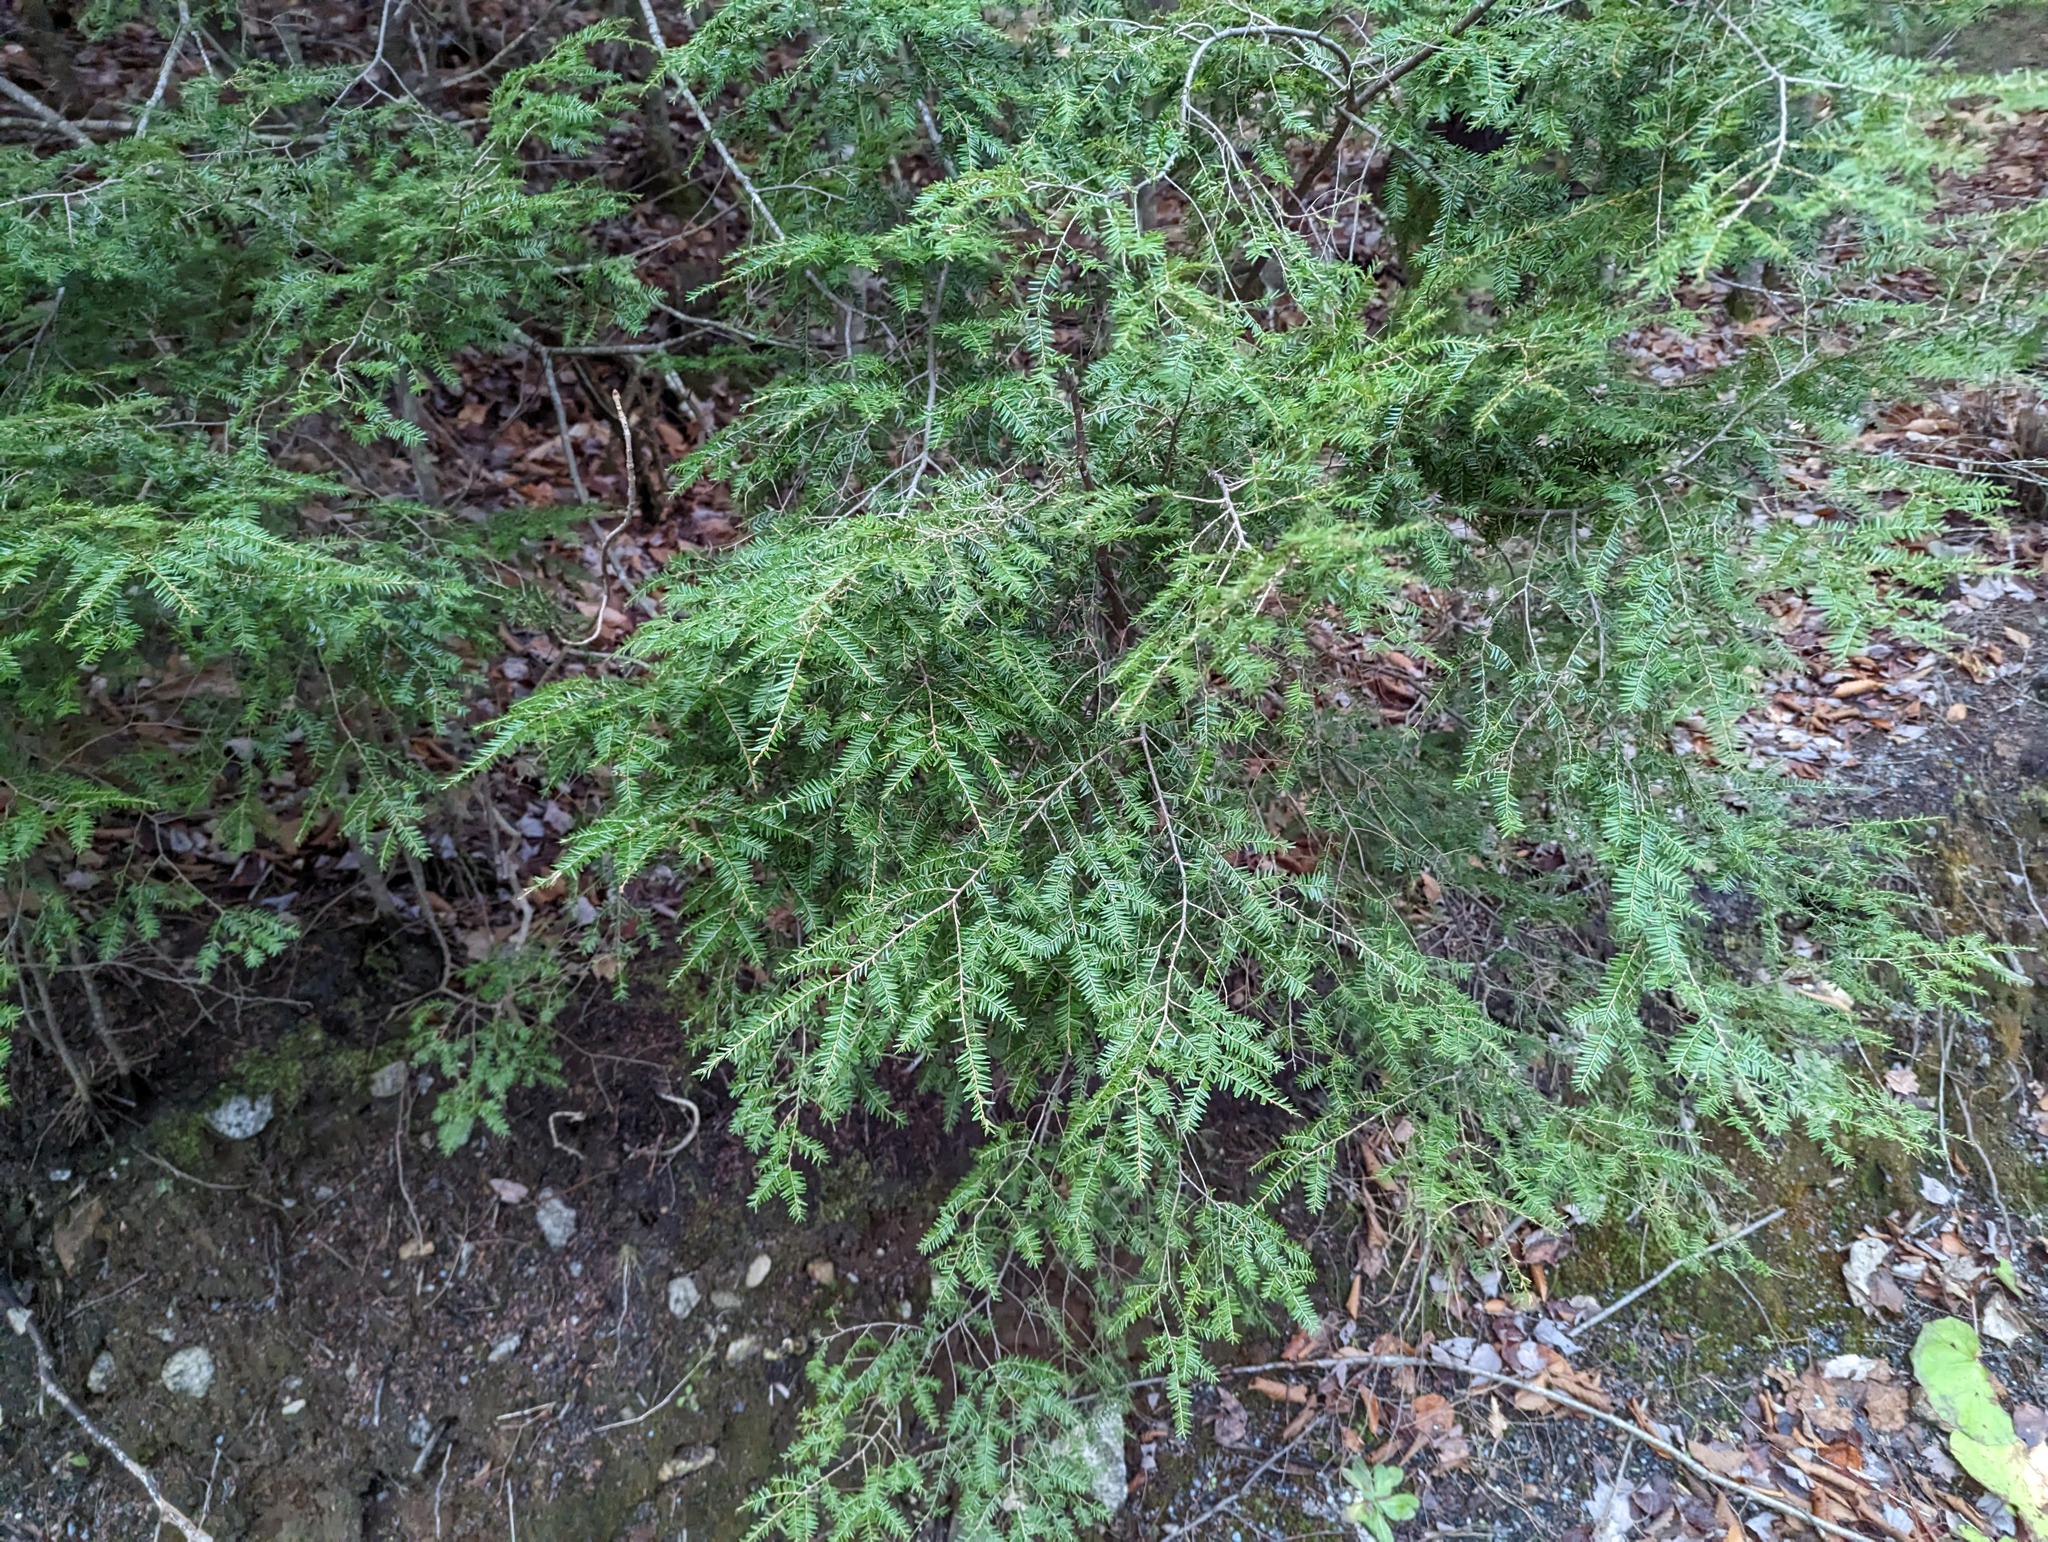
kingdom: Plantae
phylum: Tracheophyta
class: Pinopsida
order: Pinales
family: Pinaceae
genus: Tsuga
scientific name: Tsuga canadensis
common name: Eastern hemlock
